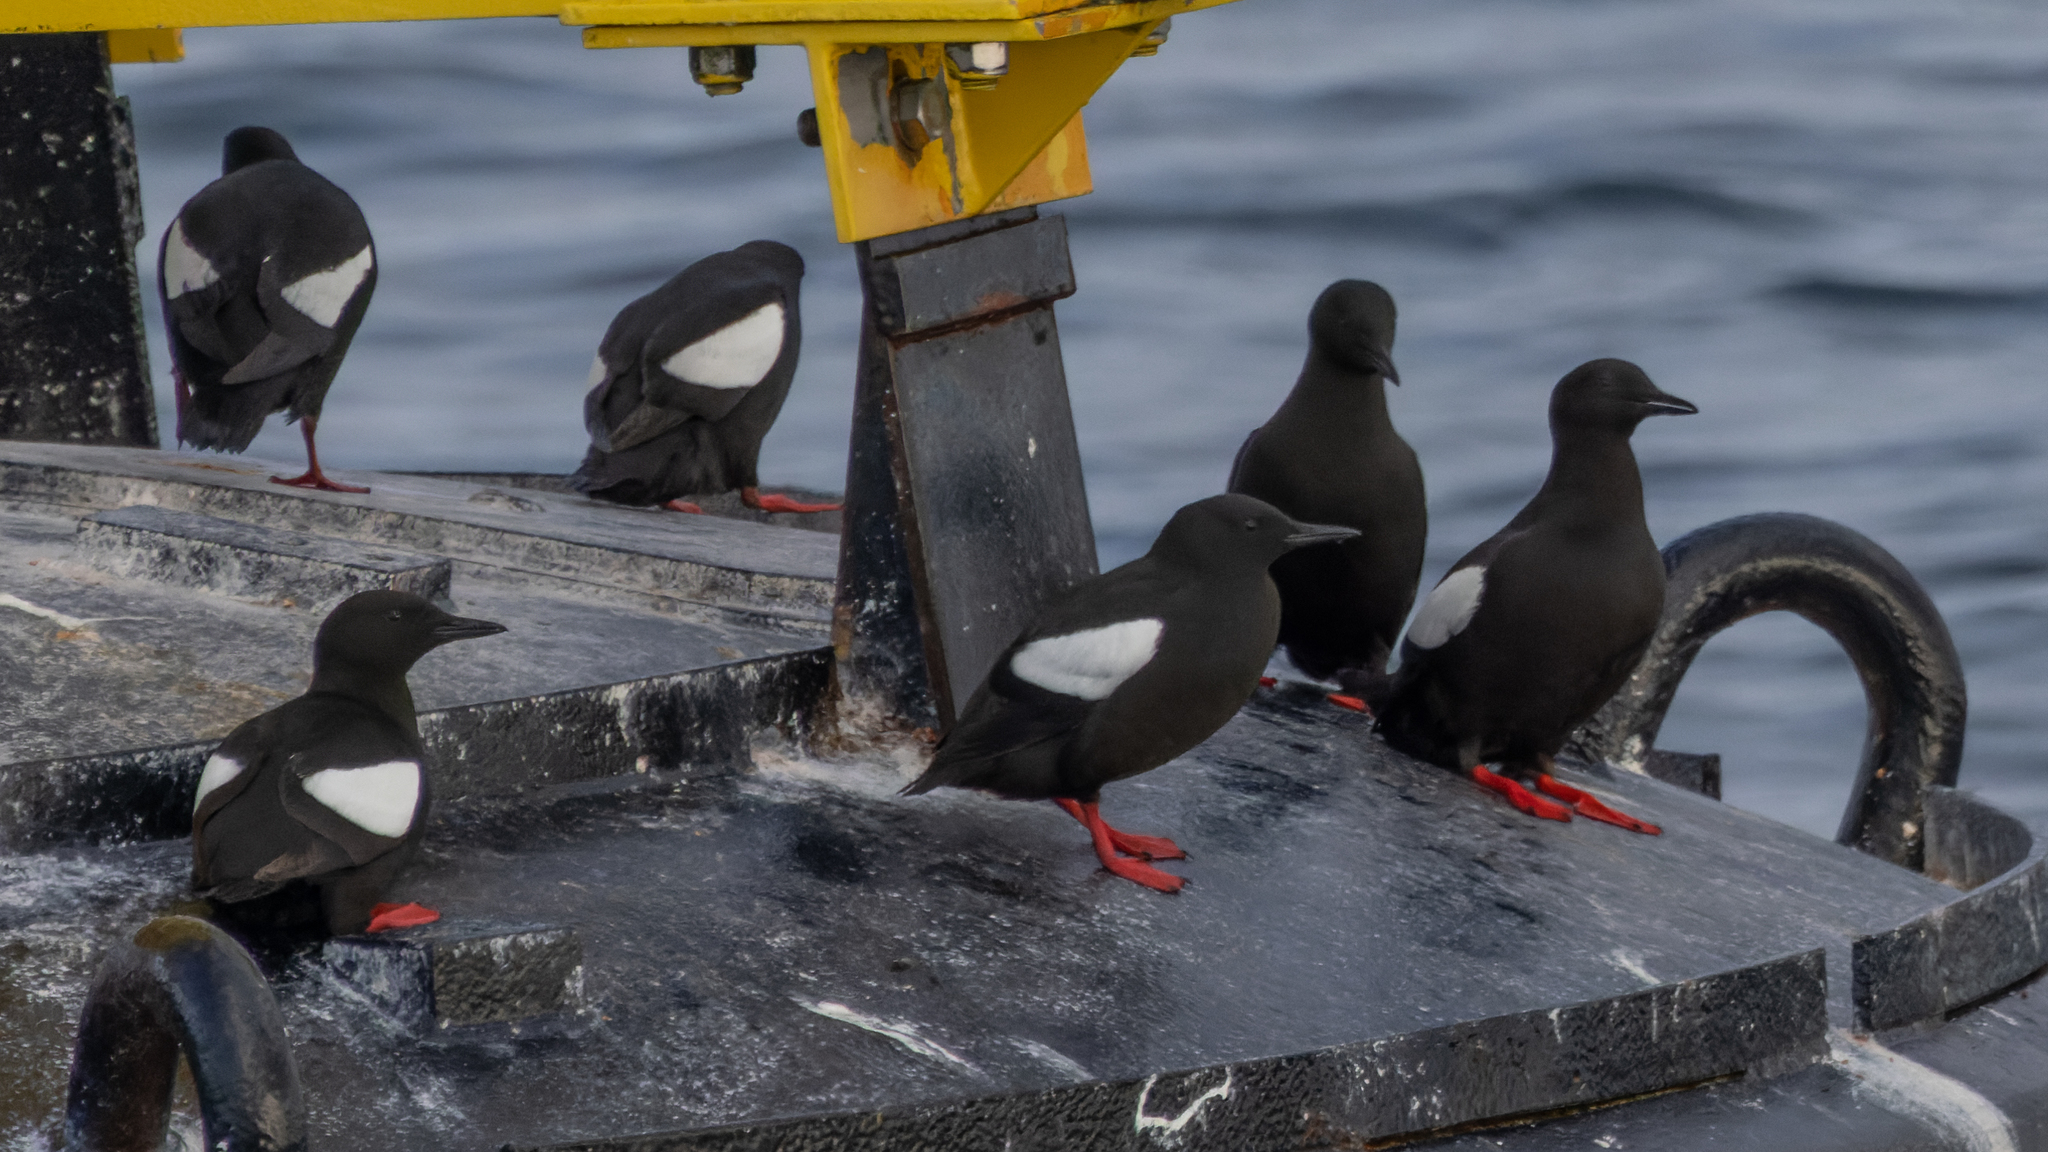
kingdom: Animalia
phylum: Chordata
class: Aves
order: Charadriiformes
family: Alcidae
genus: Cepphus
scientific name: Cepphus grylle
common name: Black guillemot
